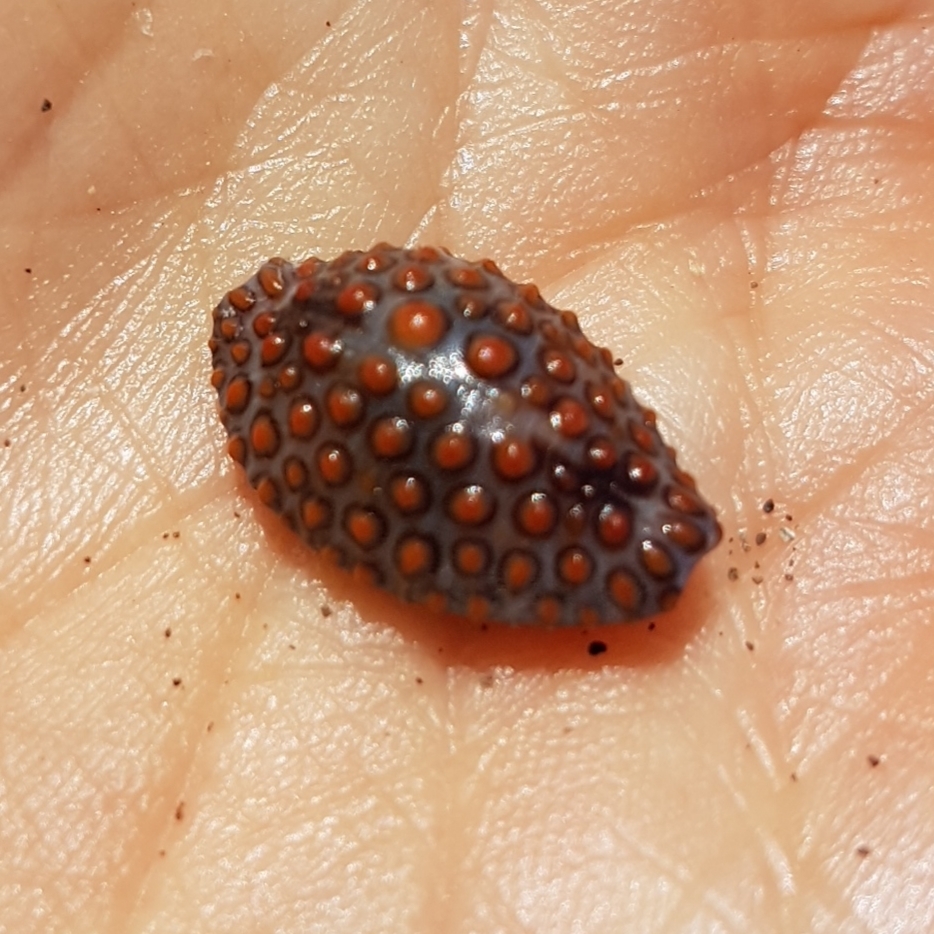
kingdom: Animalia
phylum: Mollusca
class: Gastropoda
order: Littorinimorpha
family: Pediculariidae
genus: Jenneria
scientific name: Jenneria pustulata
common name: Pustuled cowrie
